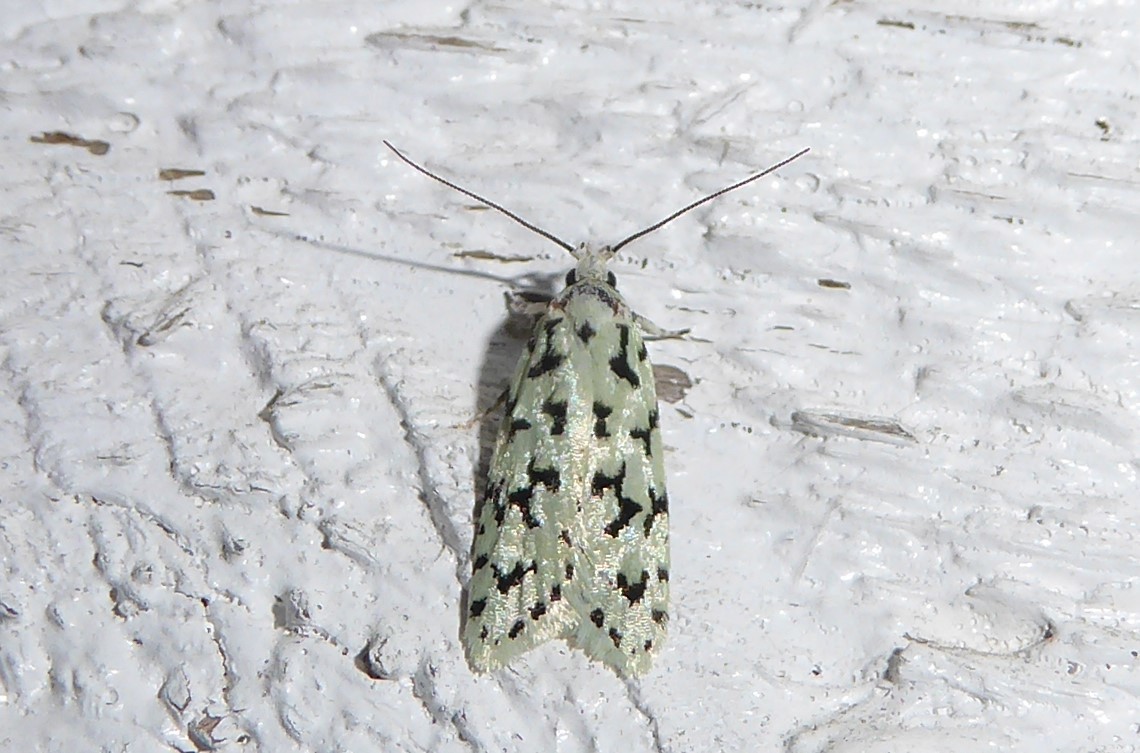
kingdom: Animalia
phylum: Arthropoda
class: Insecta
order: Lepidoptera
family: Oecophoridae
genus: Izatha
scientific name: Izatha huttoni
